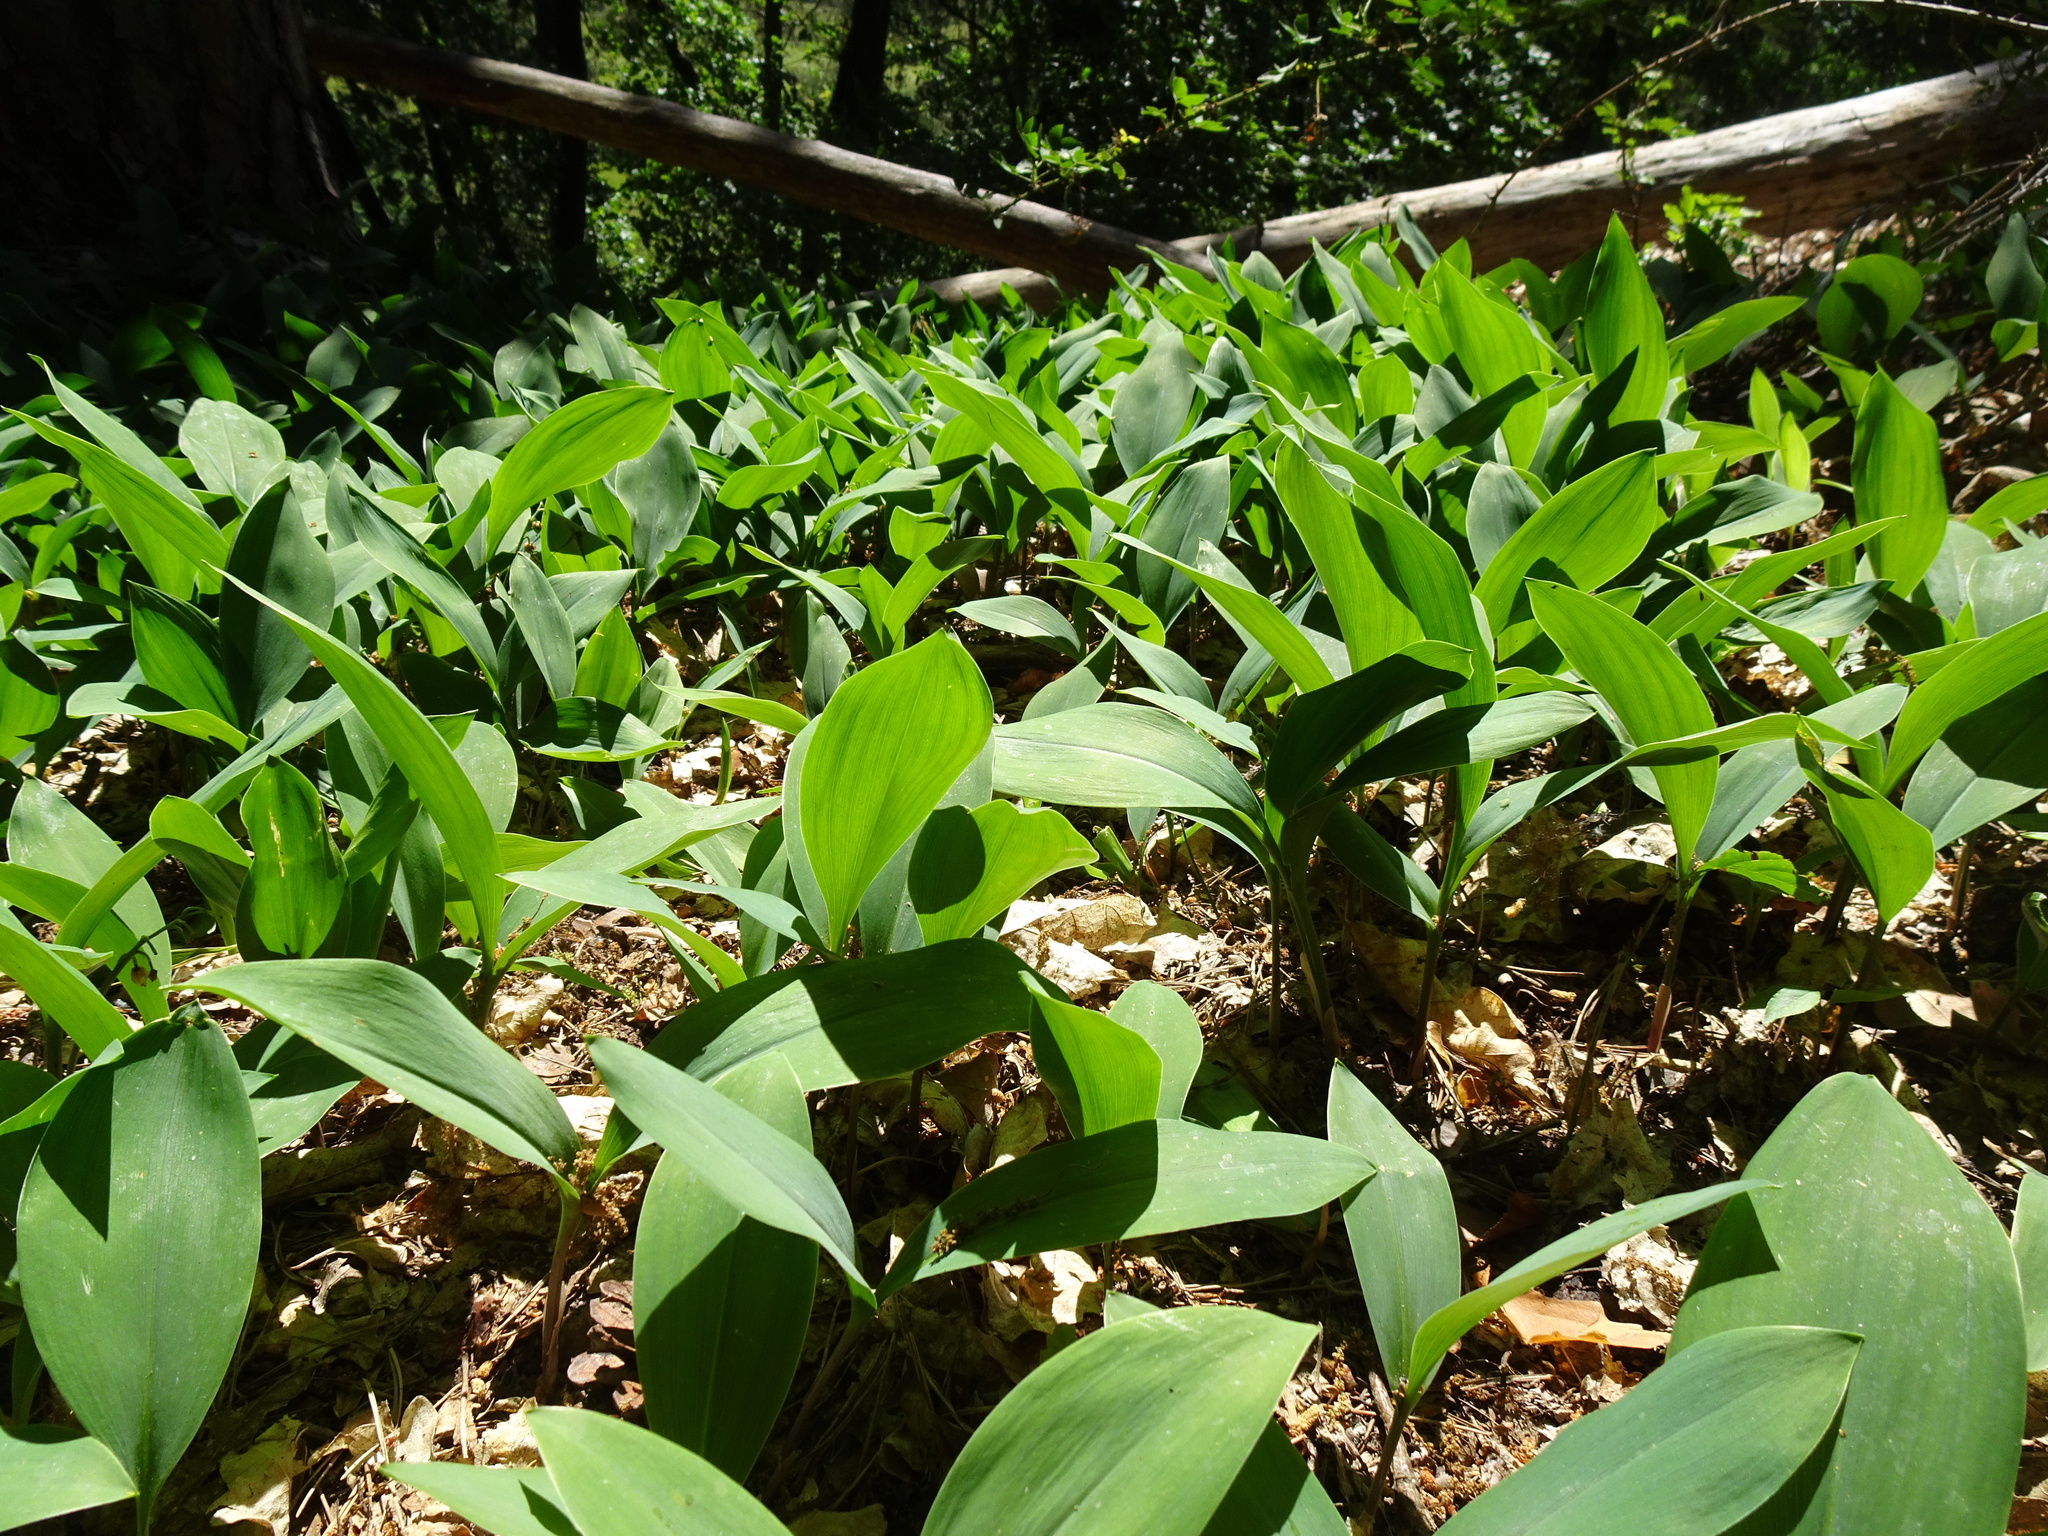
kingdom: Plantae
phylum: Tracheophyta
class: Liliopsida
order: Asparagales
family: Asparagaceae
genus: Convallaria
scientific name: Convallaria majalis
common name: Lily-of-the-valley
